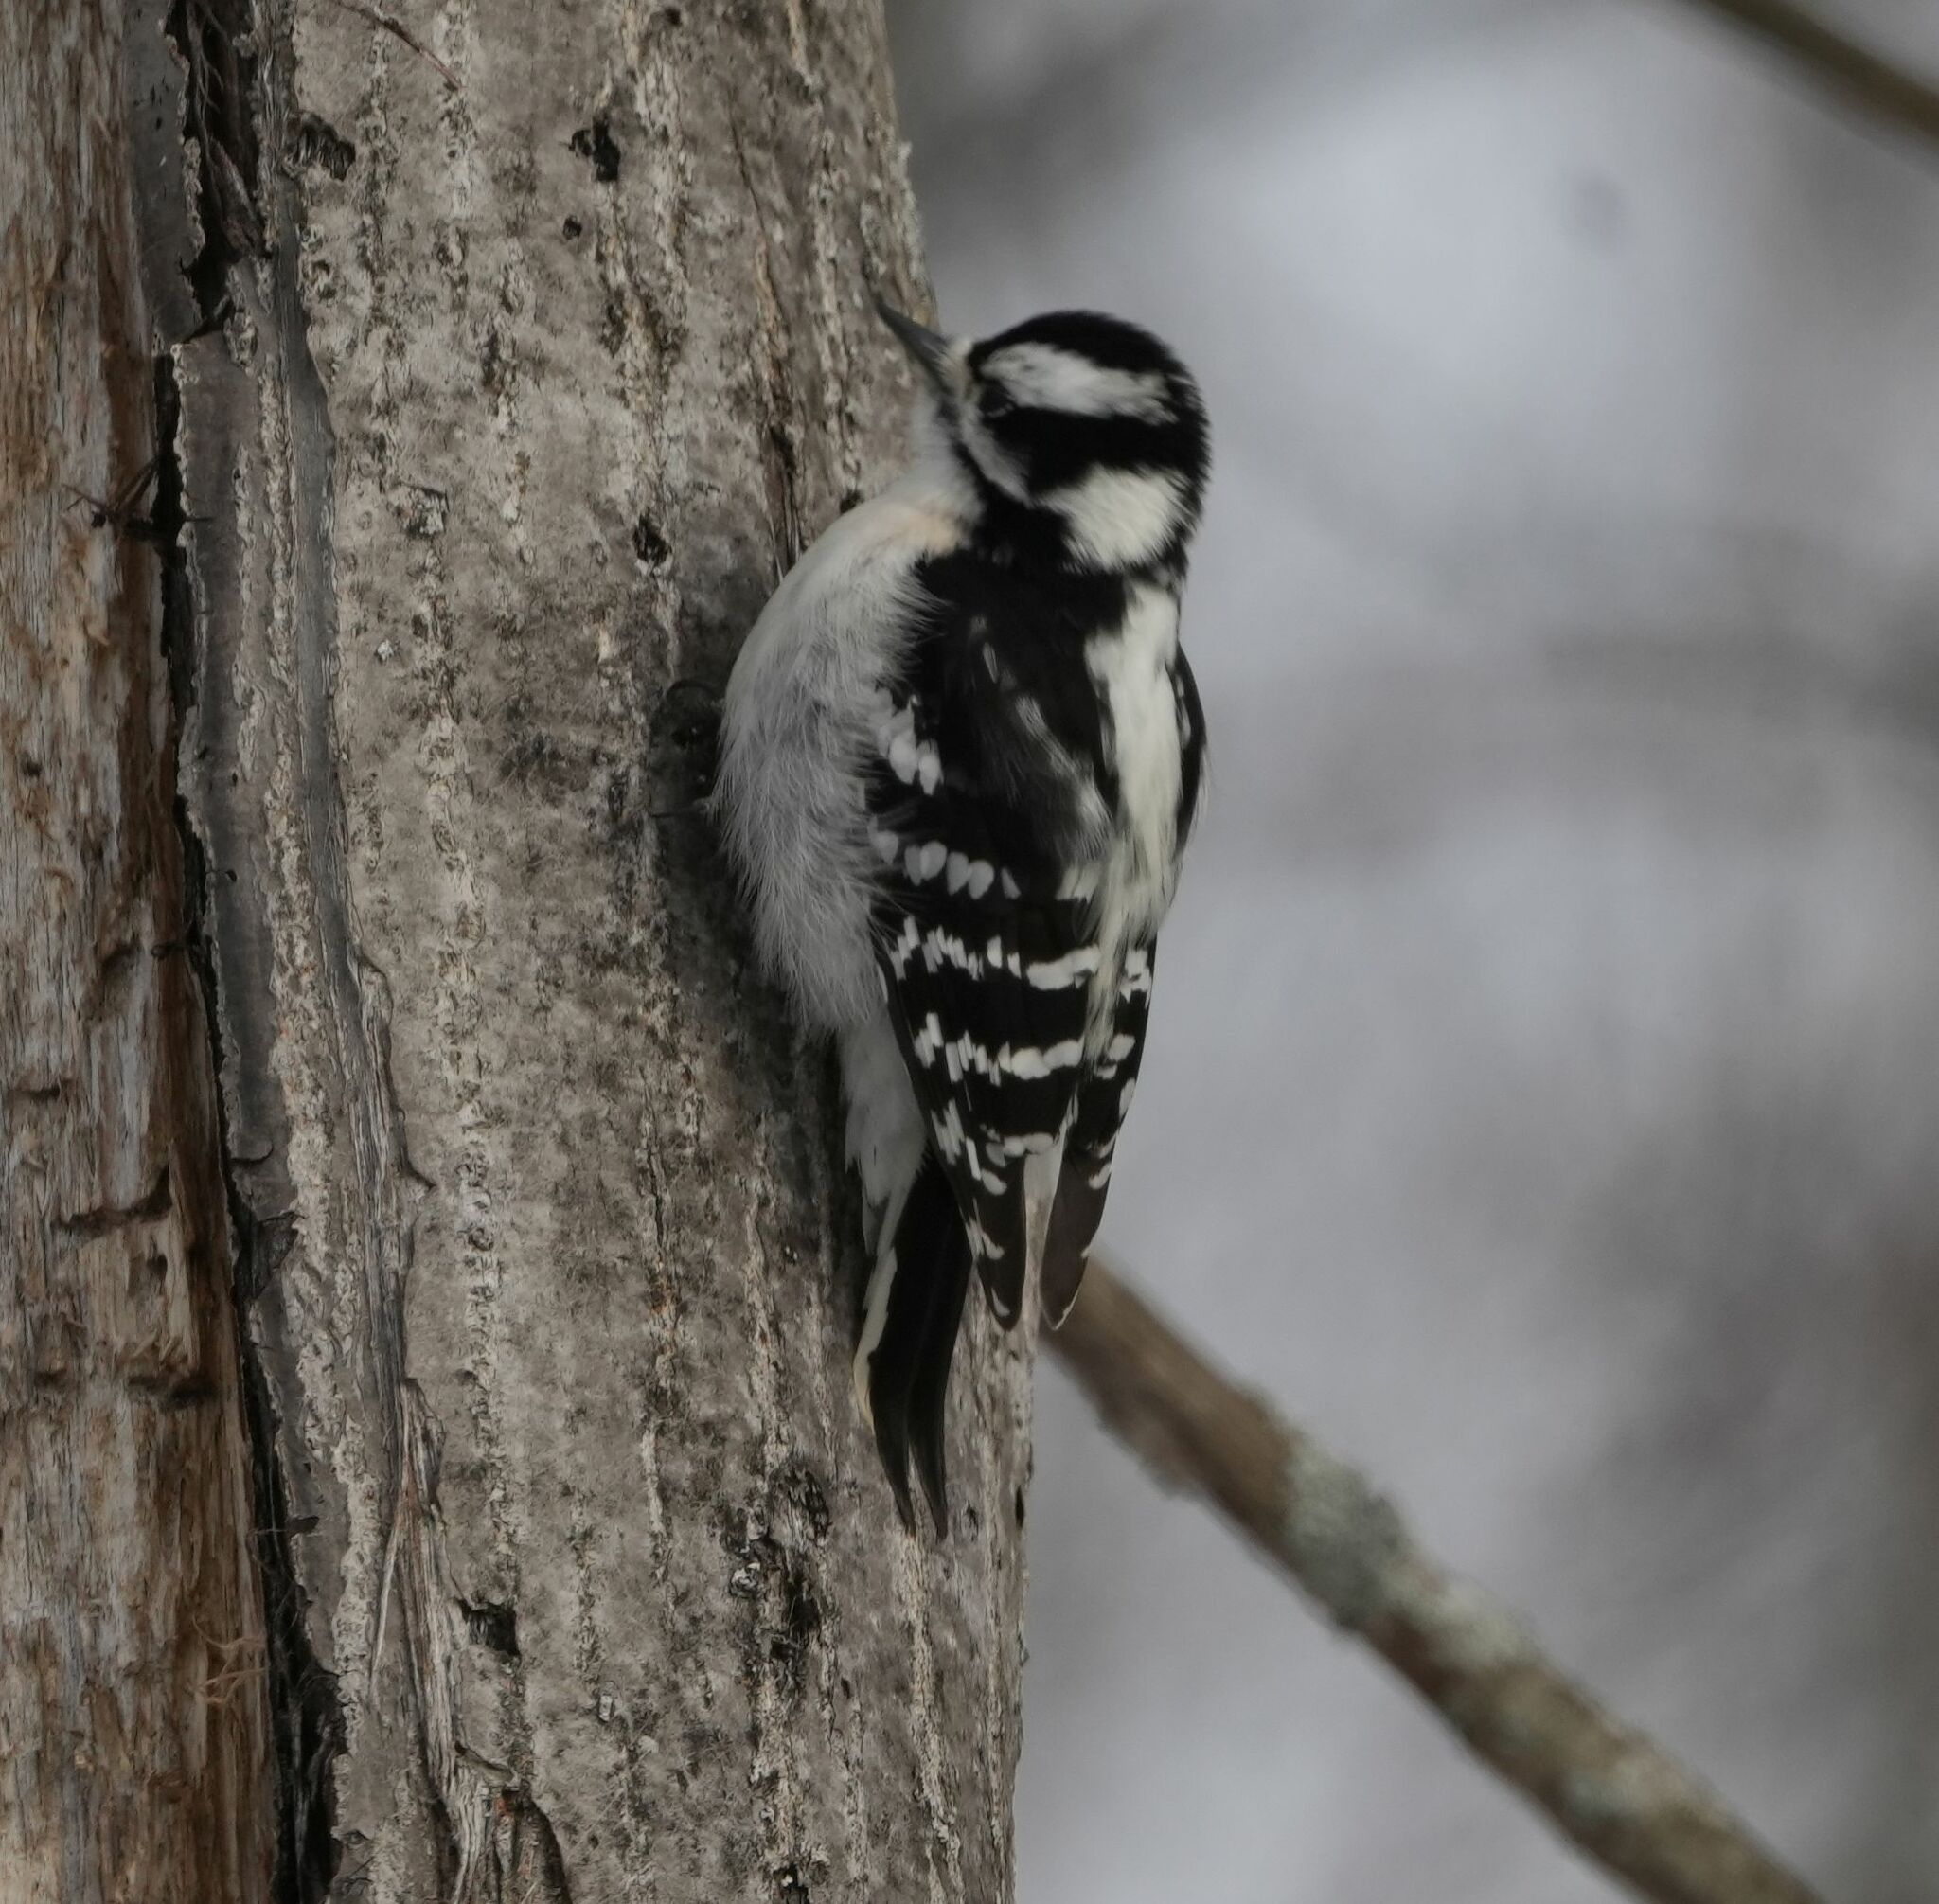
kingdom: Animalia
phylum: Chordata
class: Aves
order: Piciformes
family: Picidae
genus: Dryobates
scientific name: Dryobates pubescens
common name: Downy woodpecker
